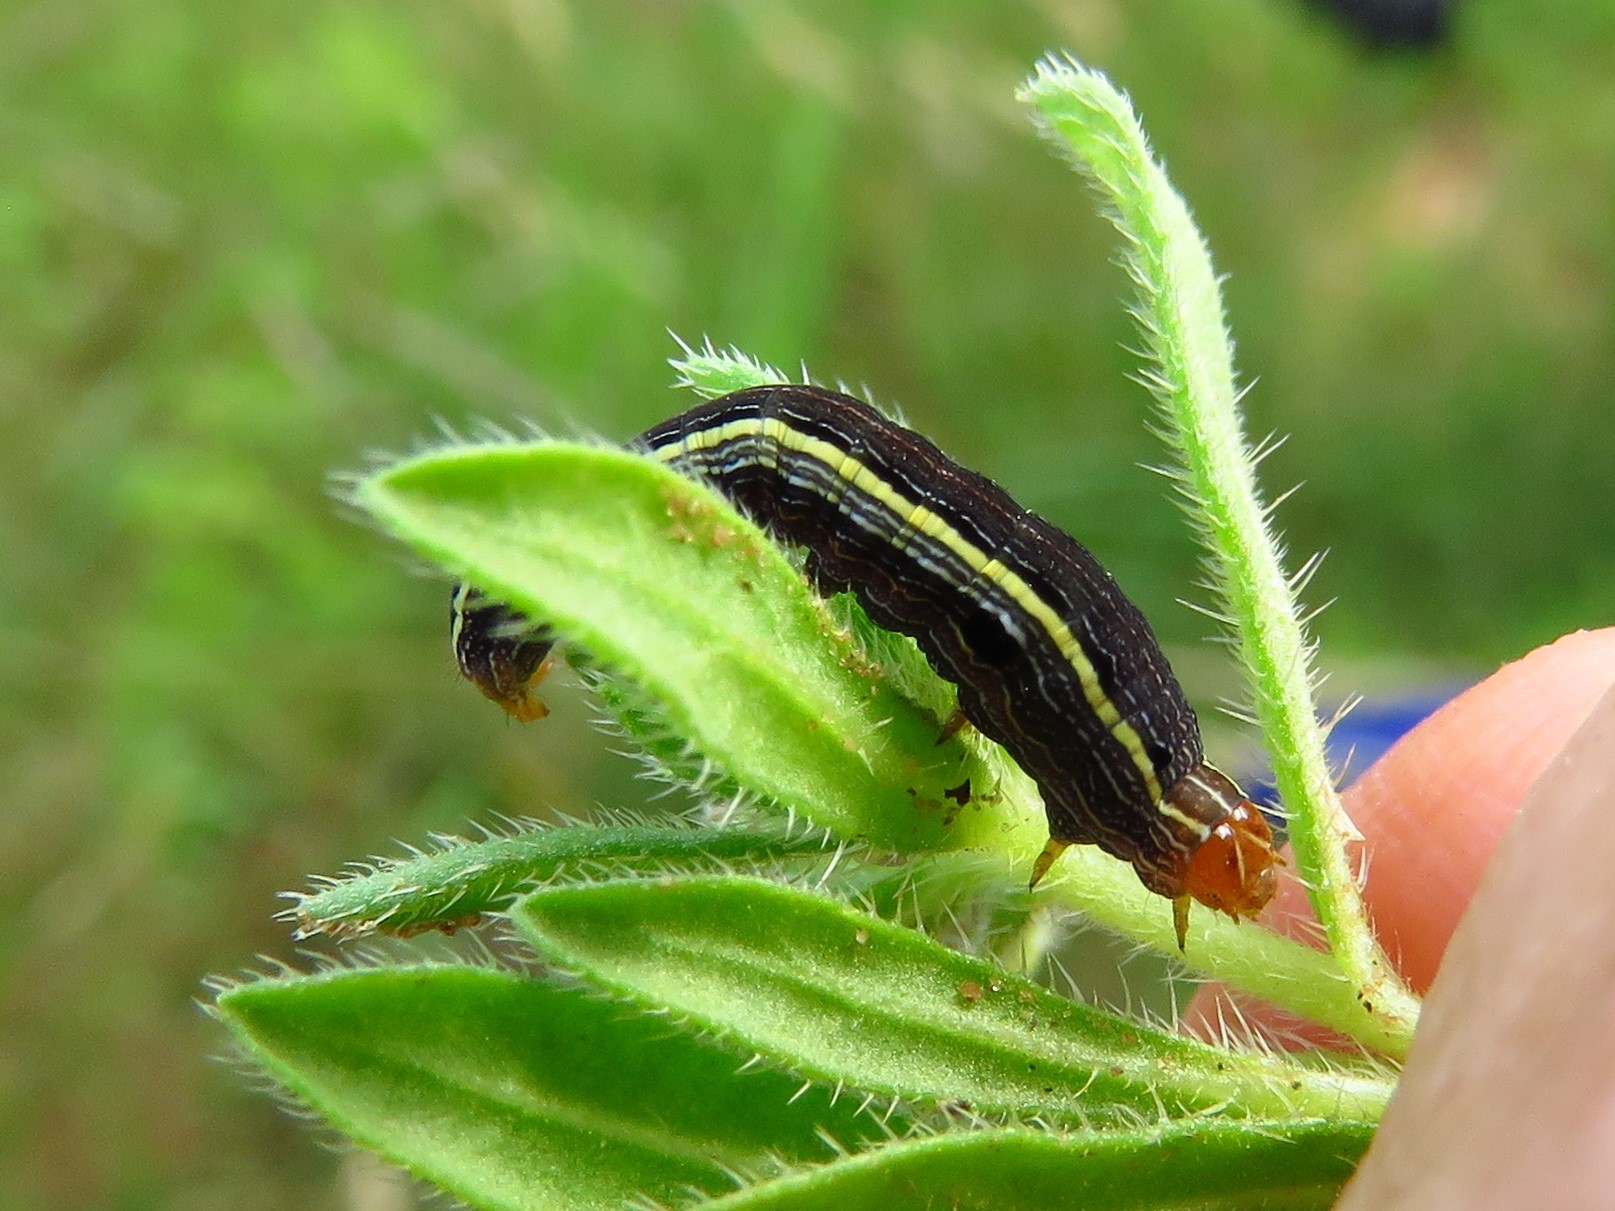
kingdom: Animalia
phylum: Arthropoda
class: Insecta
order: Lepidoptera
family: Noctuidae
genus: Spodoptera
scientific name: Spodoptera ornithogalli
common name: Yellow-striped armyworm
